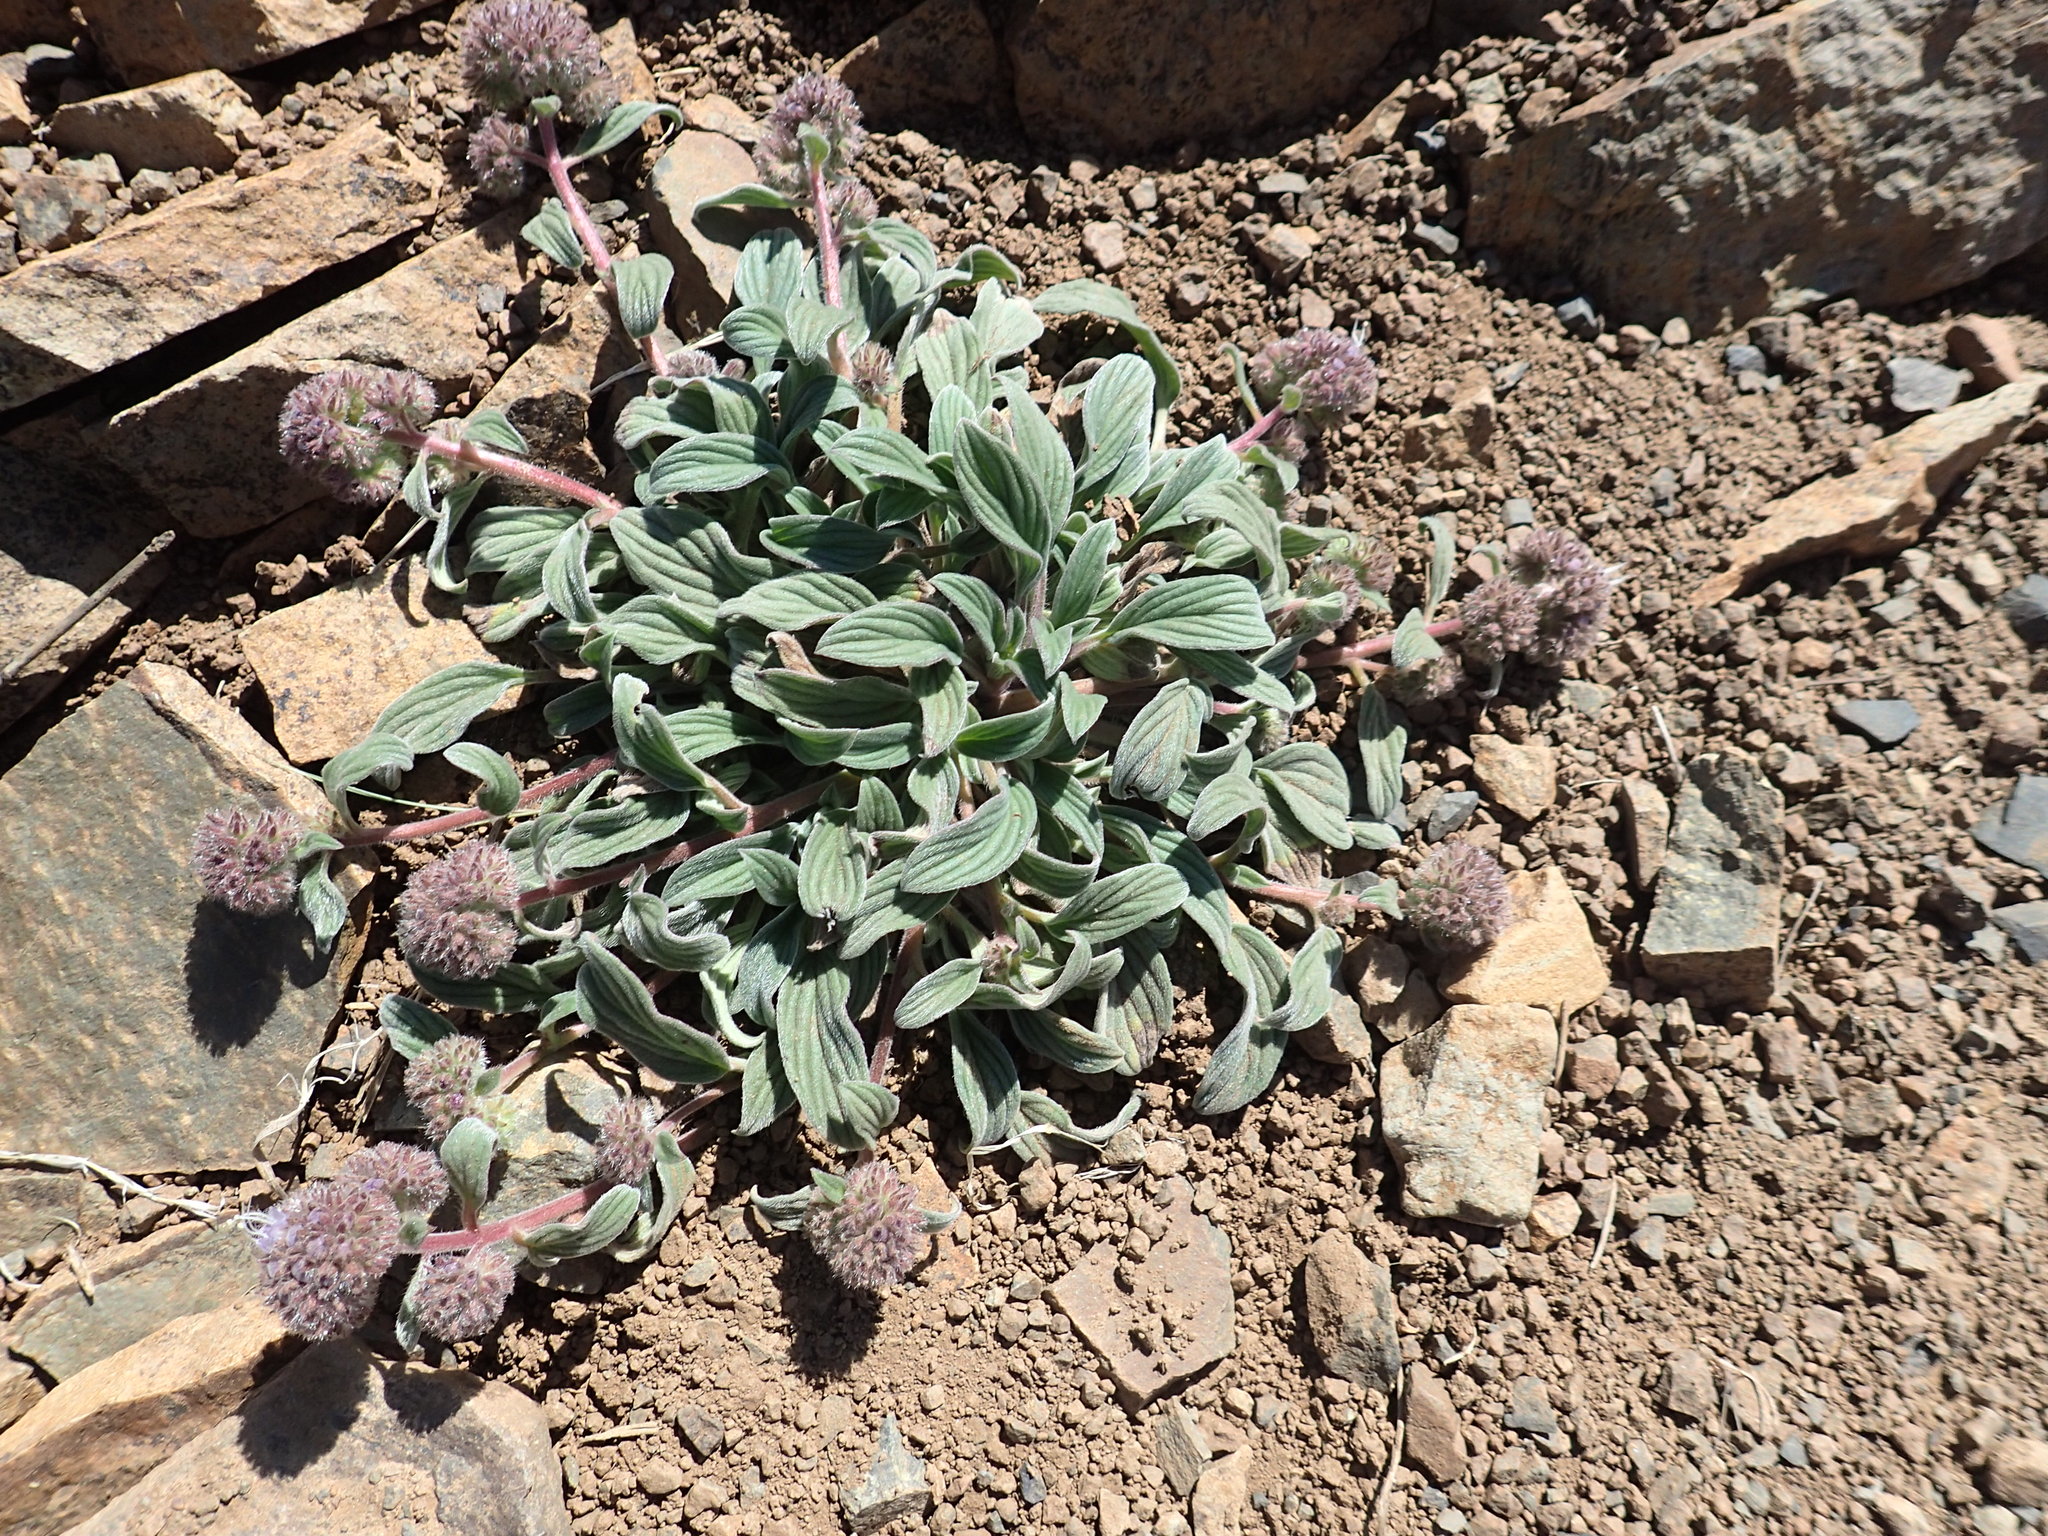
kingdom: Plantae
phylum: Tracheophyta
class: Magnoliopsida
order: Boraginales
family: Hydrophyllaceae
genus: Phacelia
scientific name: Phacelia hastata
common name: Silver-leaved phacelia
